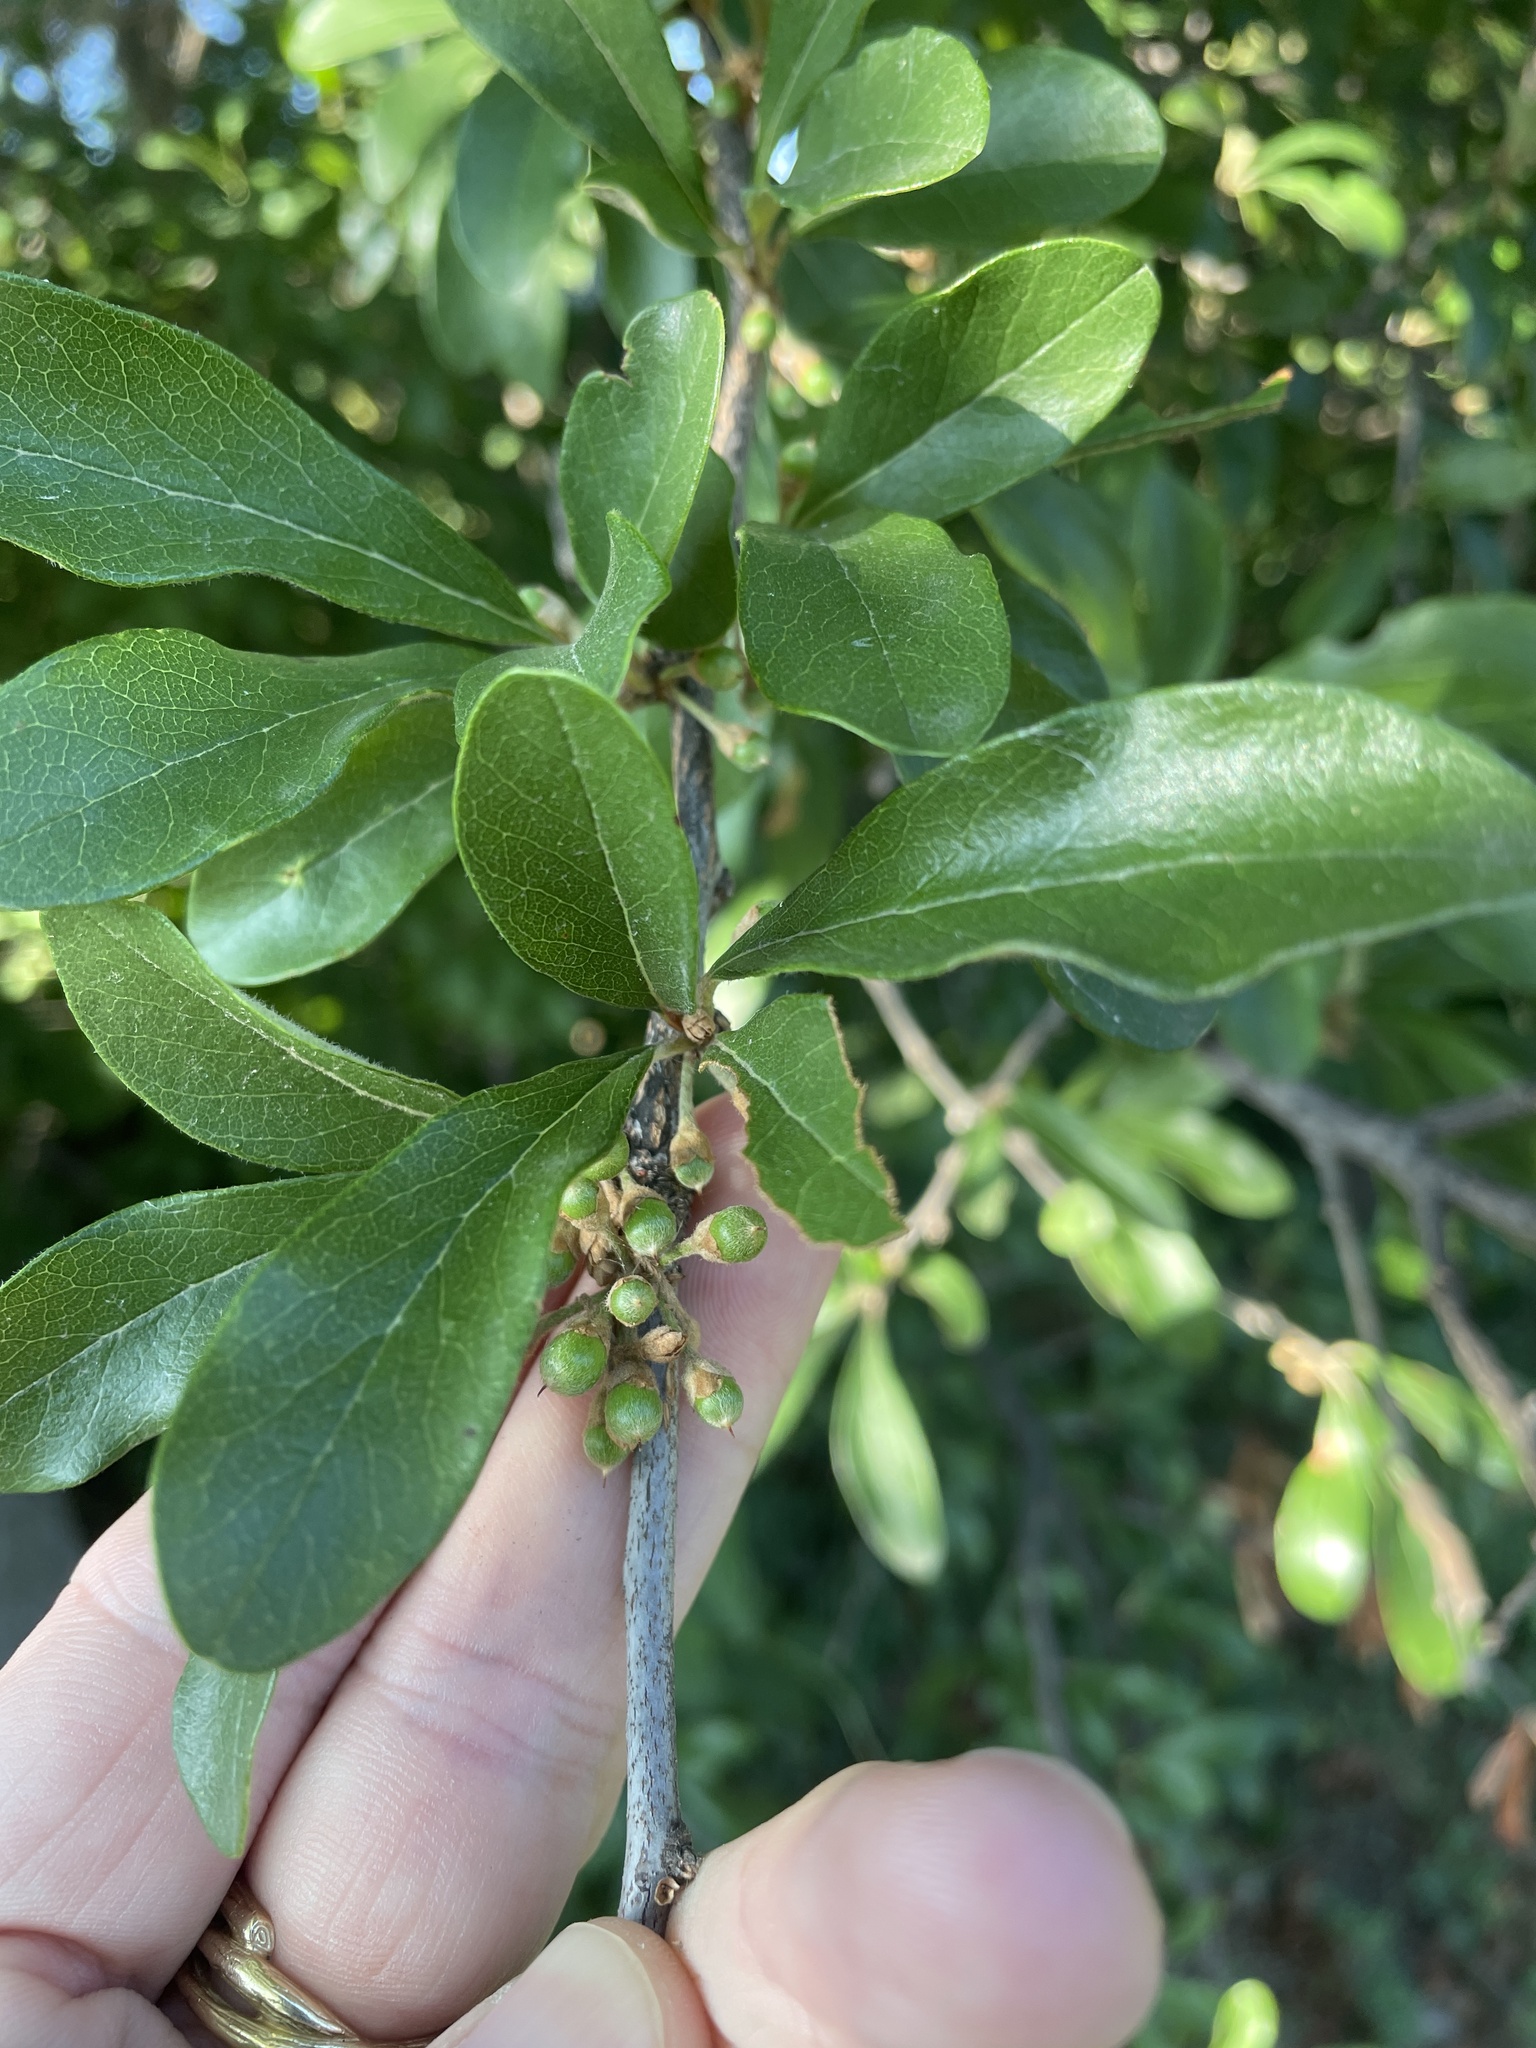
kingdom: Plantae
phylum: Tracheophyta
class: Magnoliopsida
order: Ericales
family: Sapotaceae
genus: Sideroxylon
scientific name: Sideroxylon lanuginosum
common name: Chittamwood
